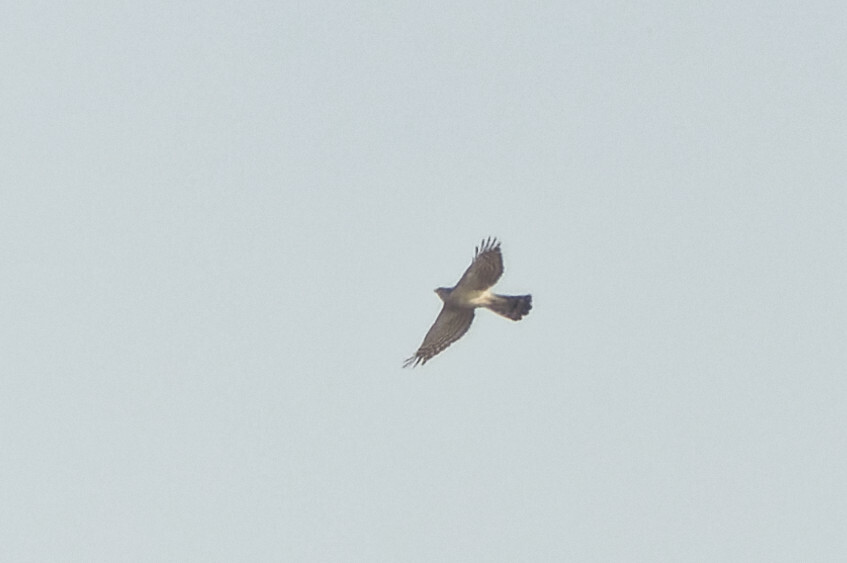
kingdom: Animalia
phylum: Chordata
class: Aves
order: Accipitriformes
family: Accipitridae
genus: Accipiter
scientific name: Accipiter nisus
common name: Eurasian sparrowhawk
